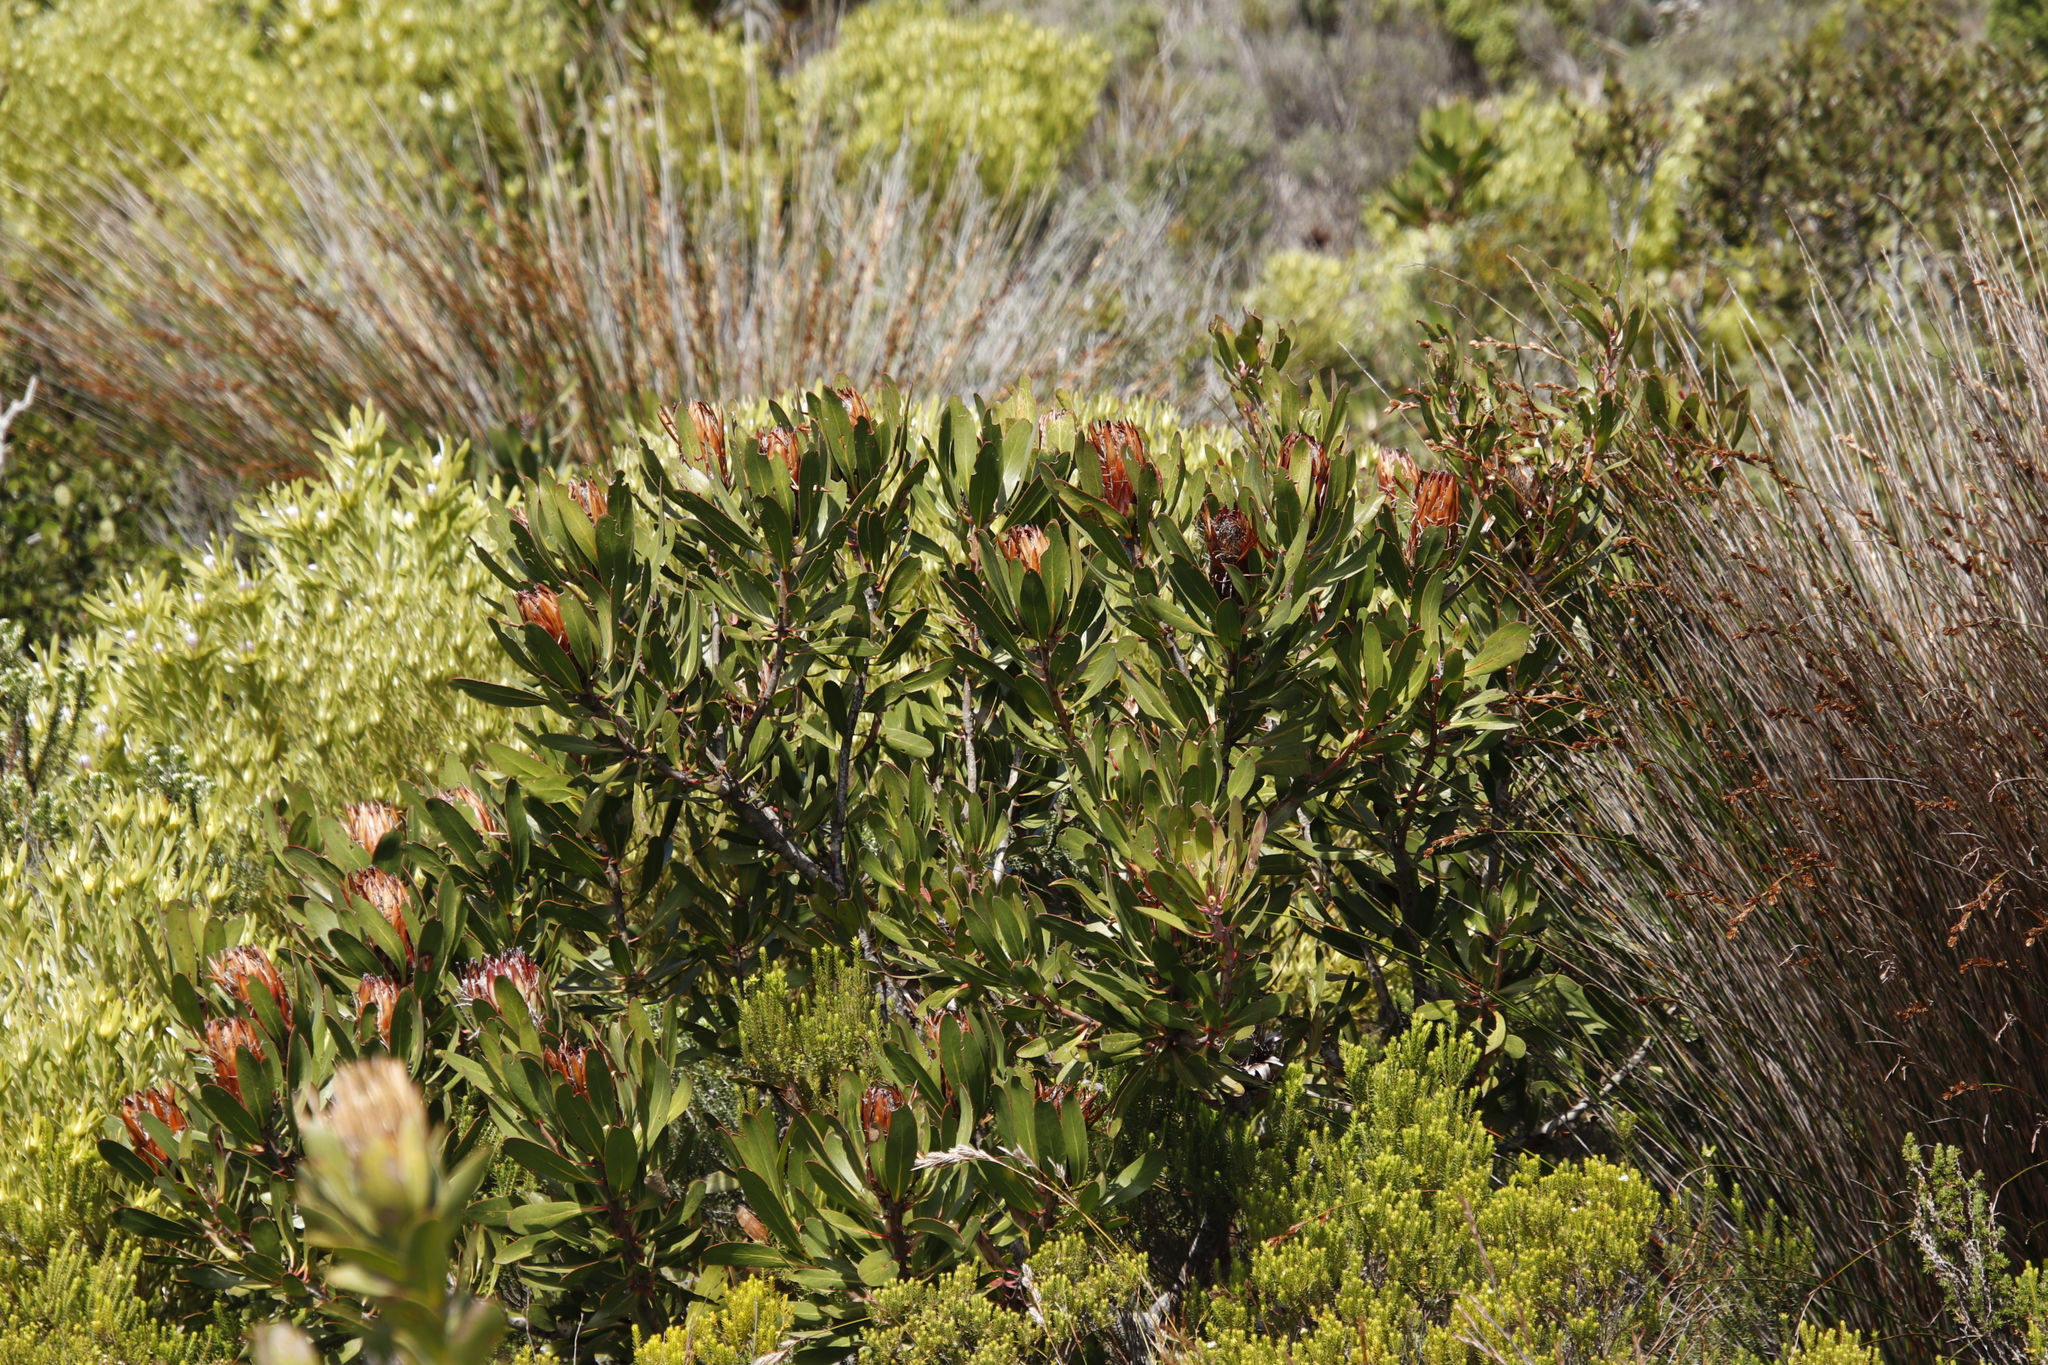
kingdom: Plantae
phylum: Tracheophyta
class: Magnoliopsida
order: Proteales
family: Proteaceae
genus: Protea
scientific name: Protea obtusifolia
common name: Bredasdorp sugarbush
